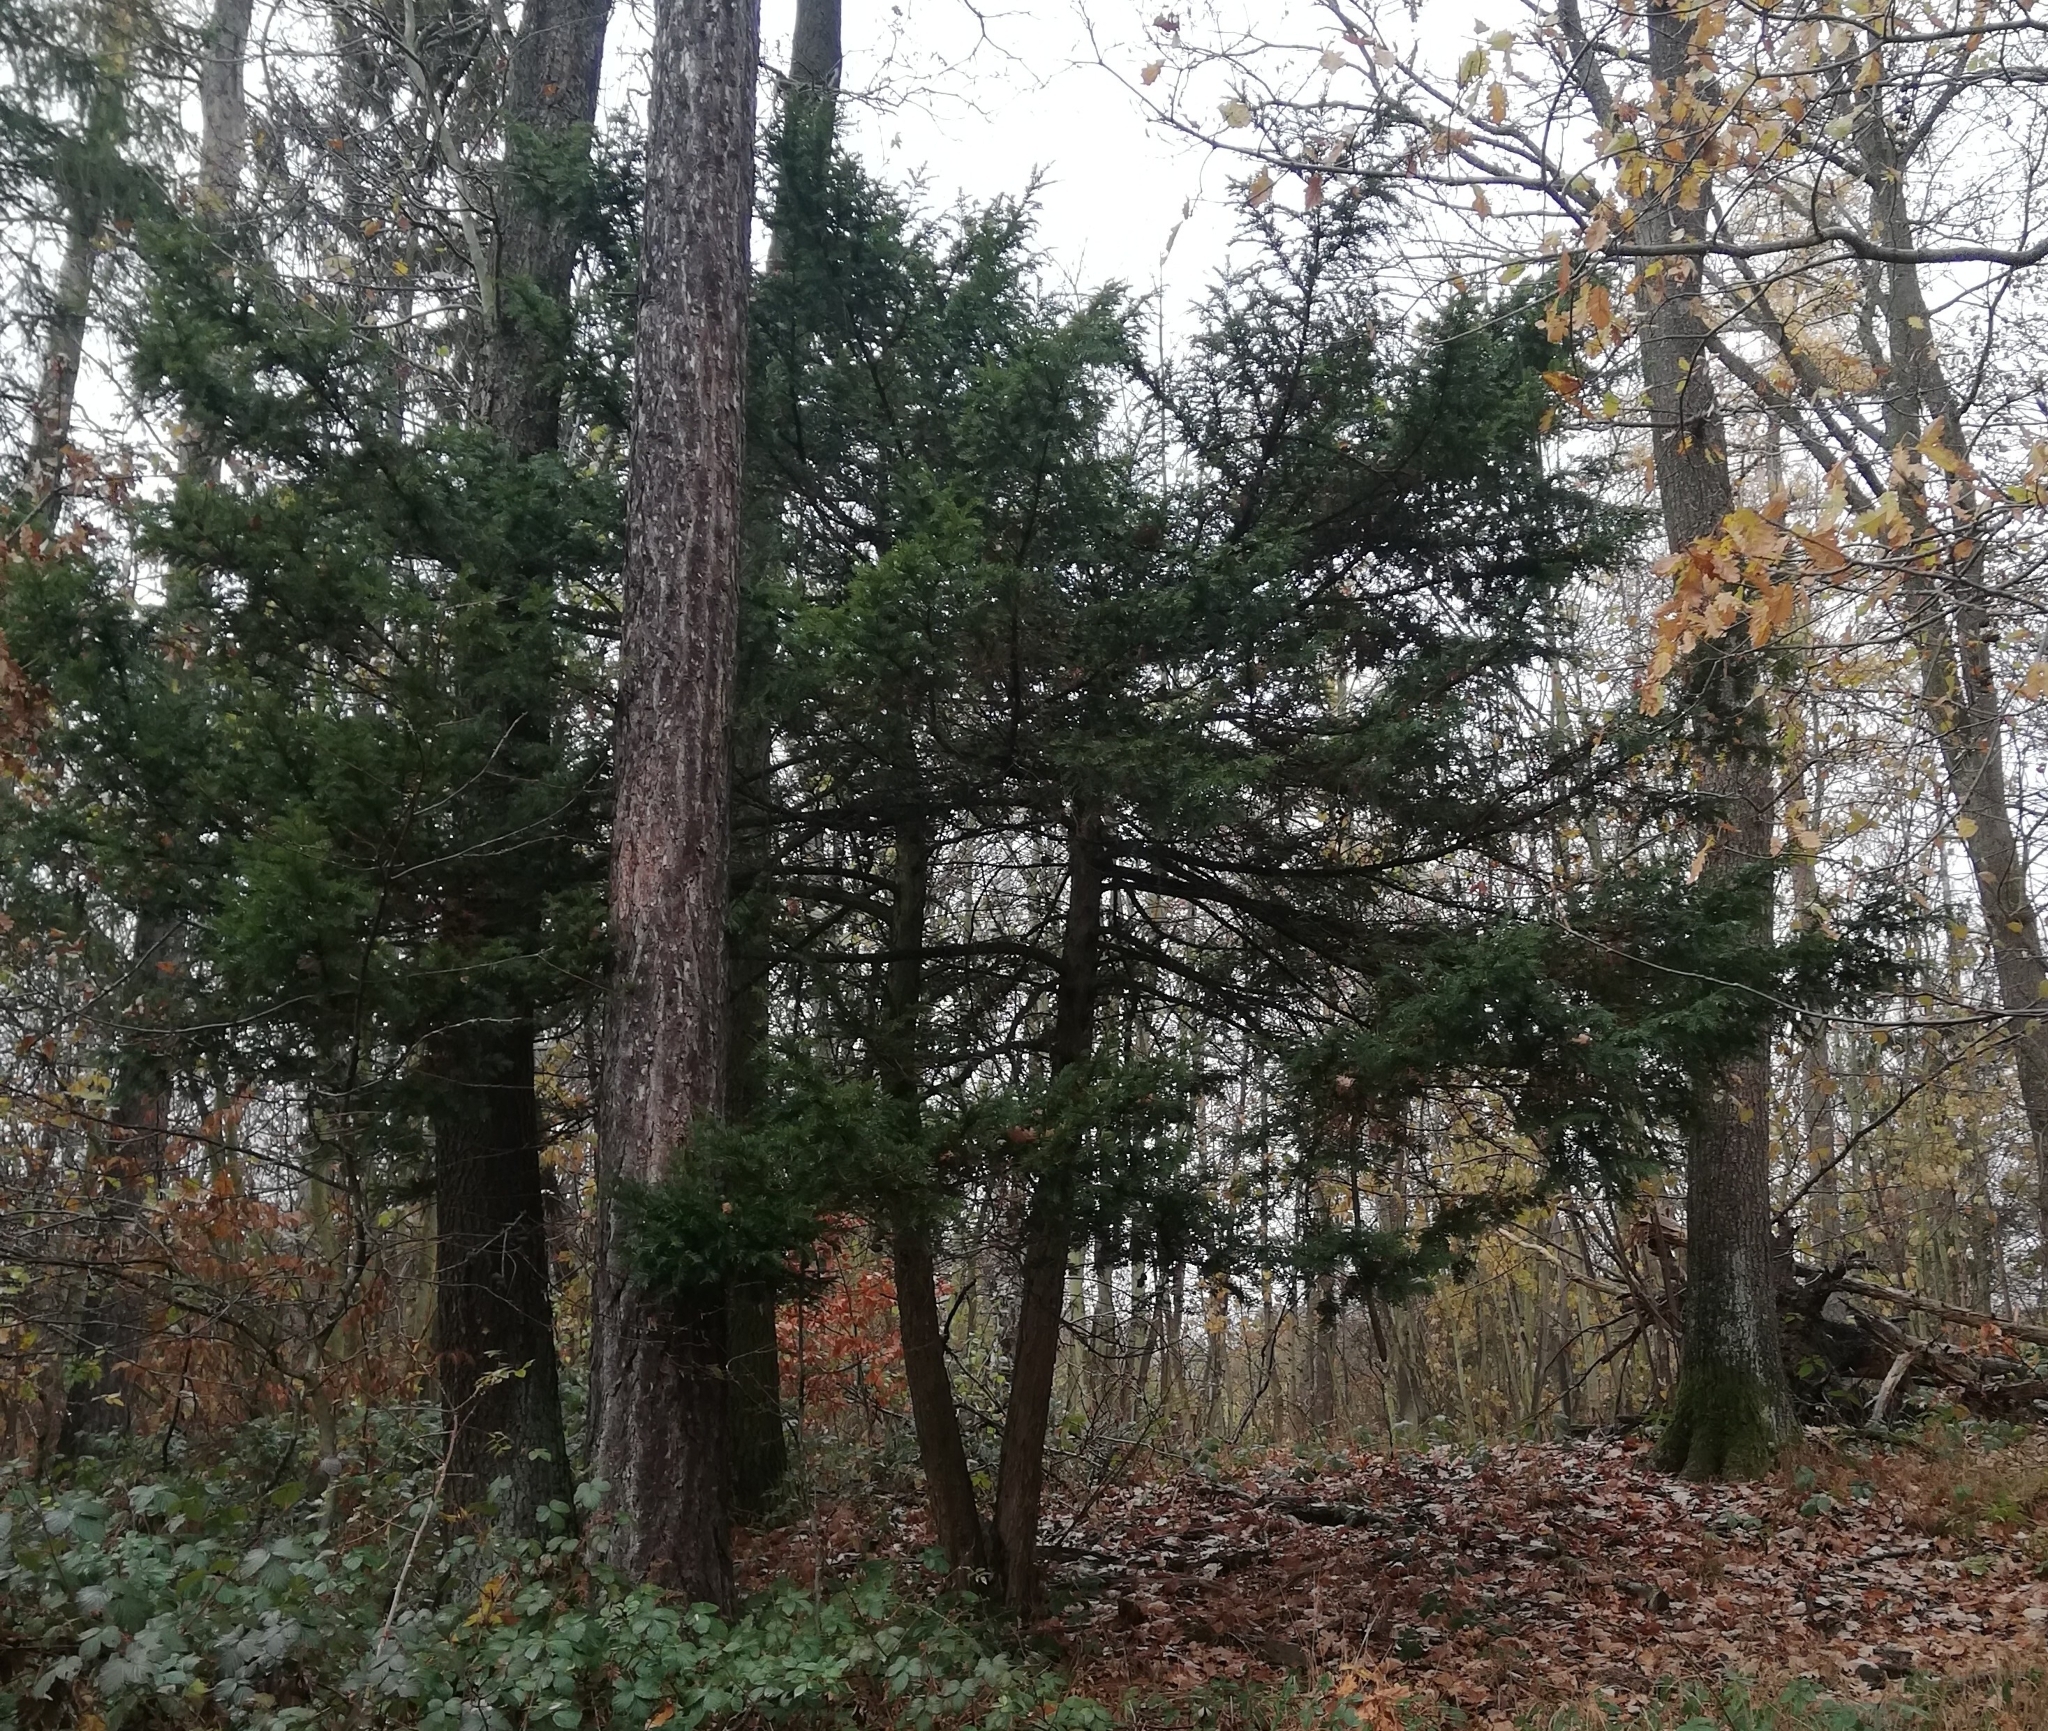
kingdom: Plantae
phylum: Tracheophyta
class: Pinopsida
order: Pinales
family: Taxaceae
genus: Taxus
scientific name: Taxus baccata
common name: Yew
